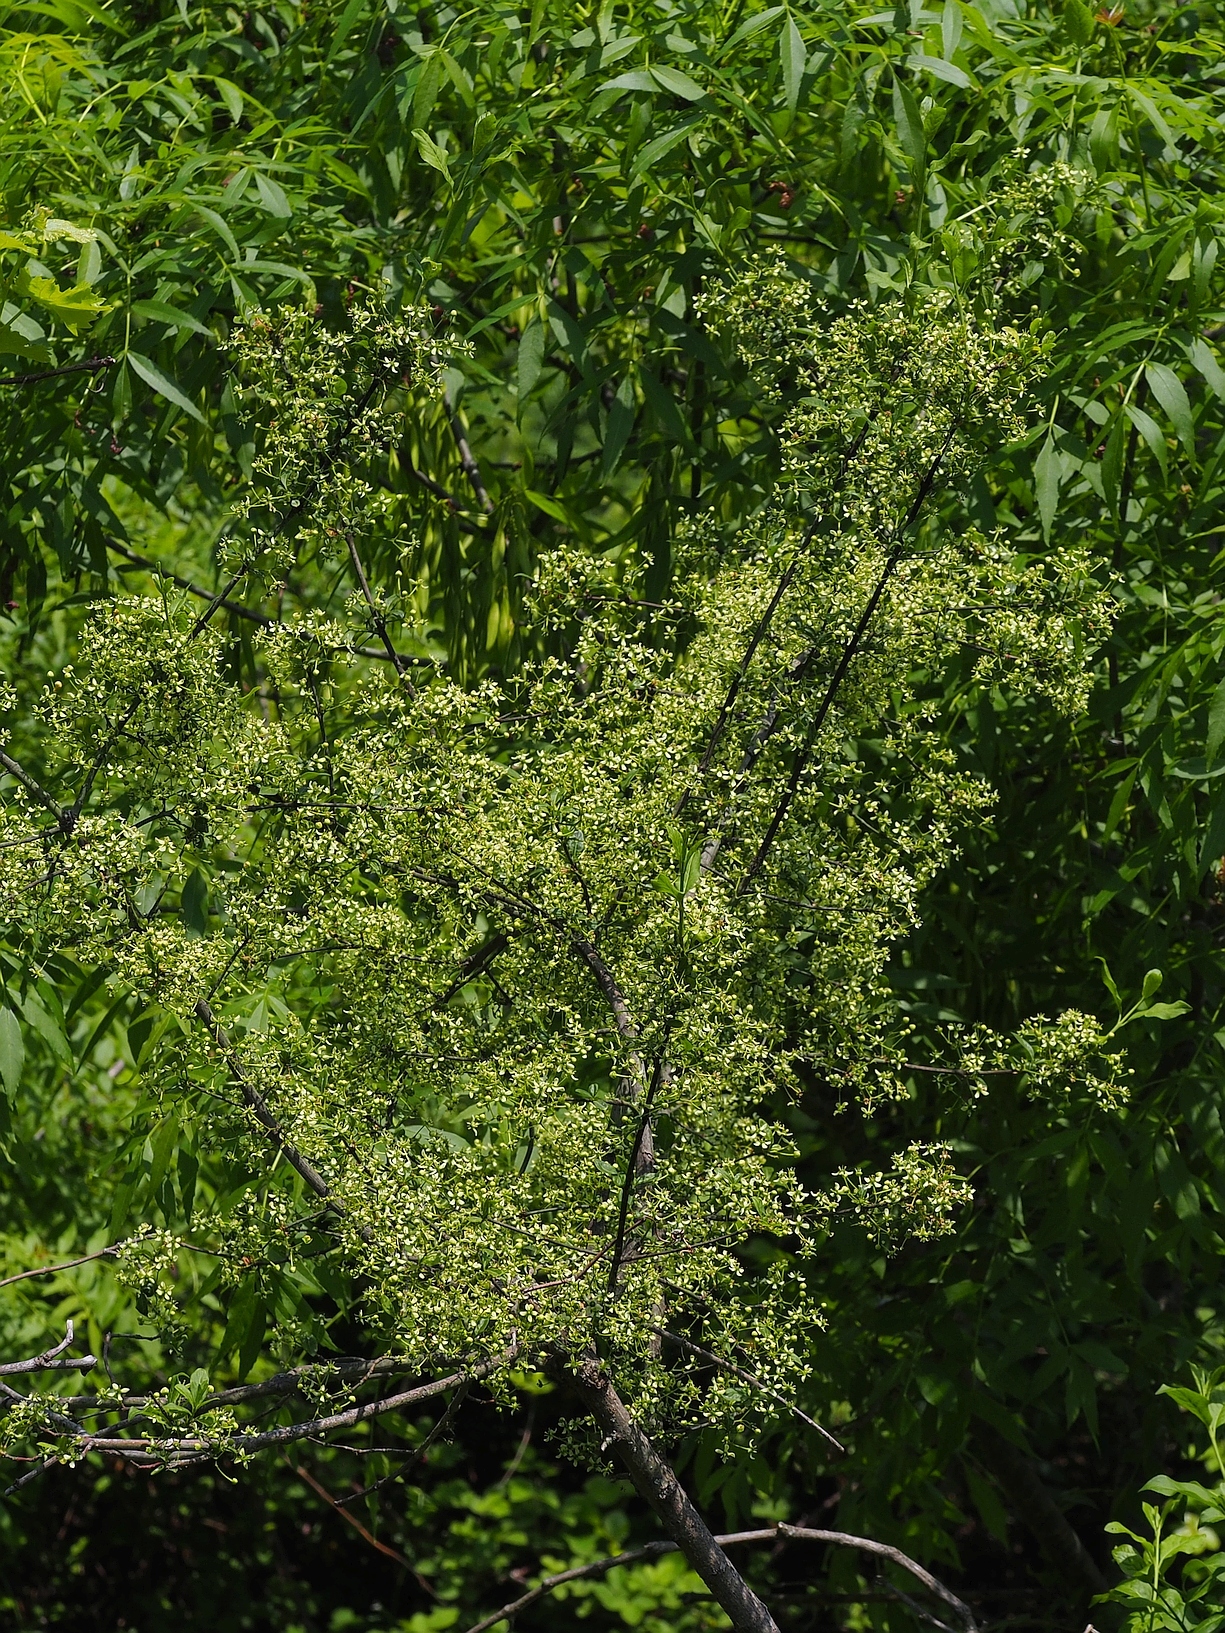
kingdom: Plantae
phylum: Tracheophyta
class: Magnoliopsida
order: Celastrales
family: Celastraceae
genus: Euonymus
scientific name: Euonymus europaeus
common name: Spindle
